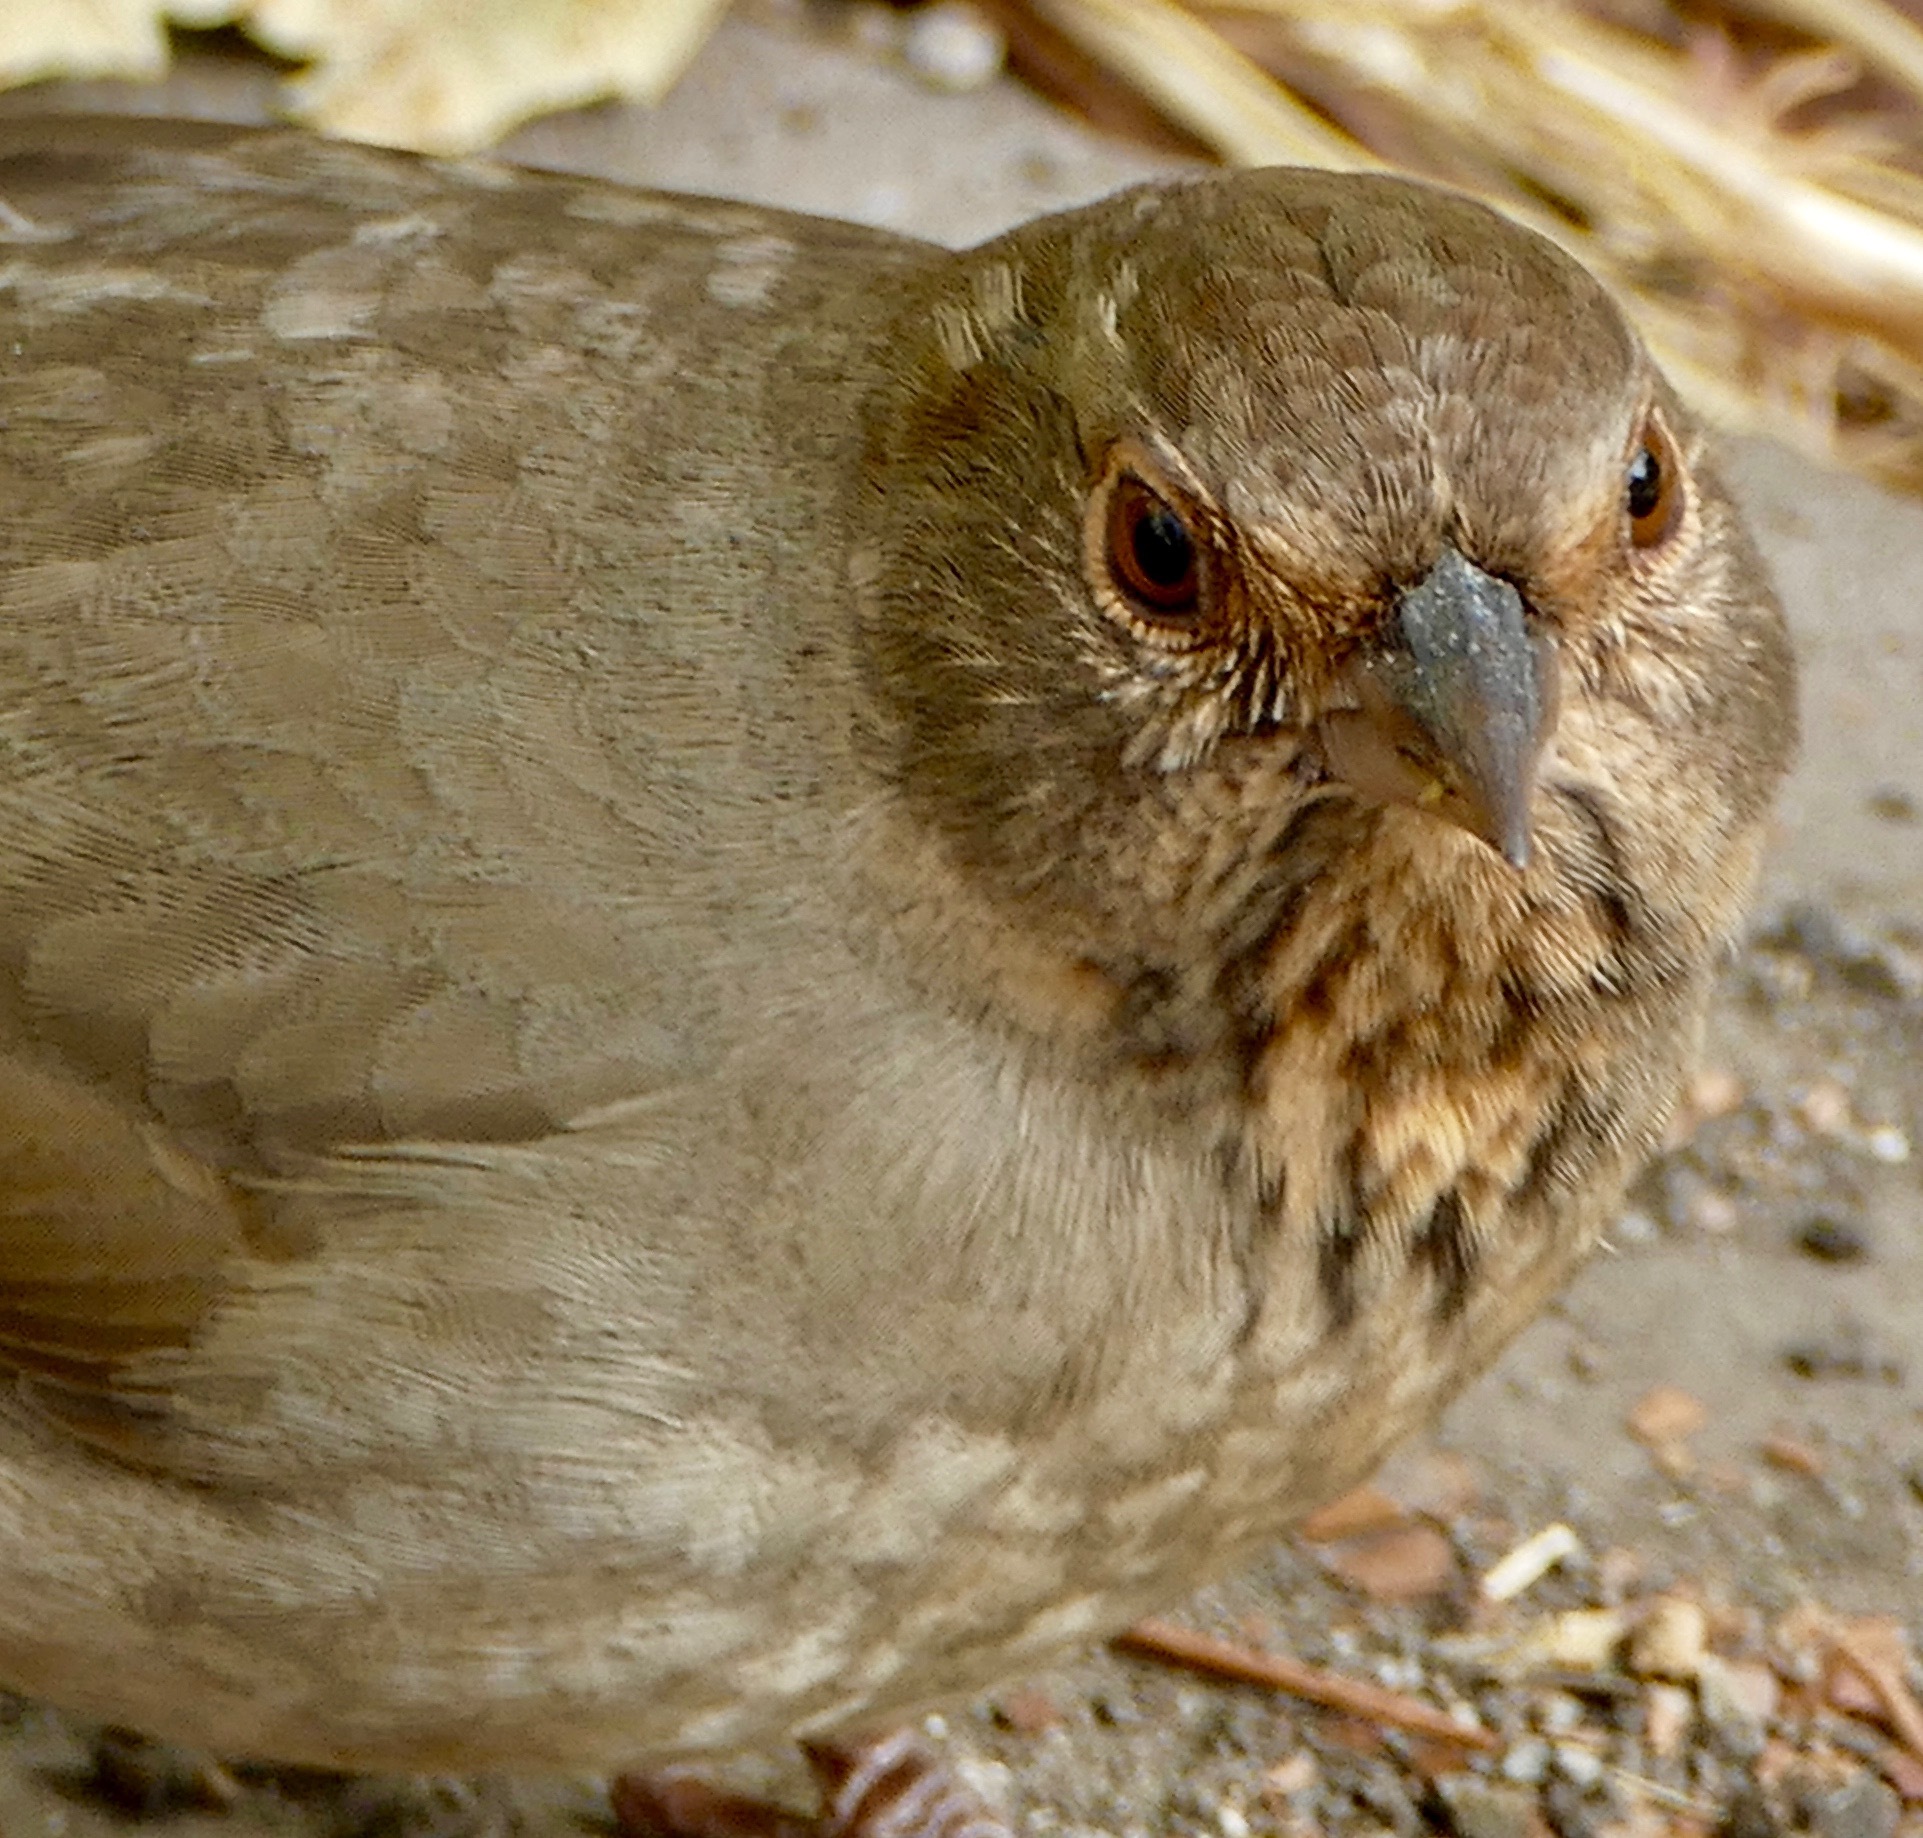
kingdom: Animalia
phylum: Chordata
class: Aves
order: Passeriformes
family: Passerellidae
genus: Melozone
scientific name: Melozone crissalis
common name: California towhee
